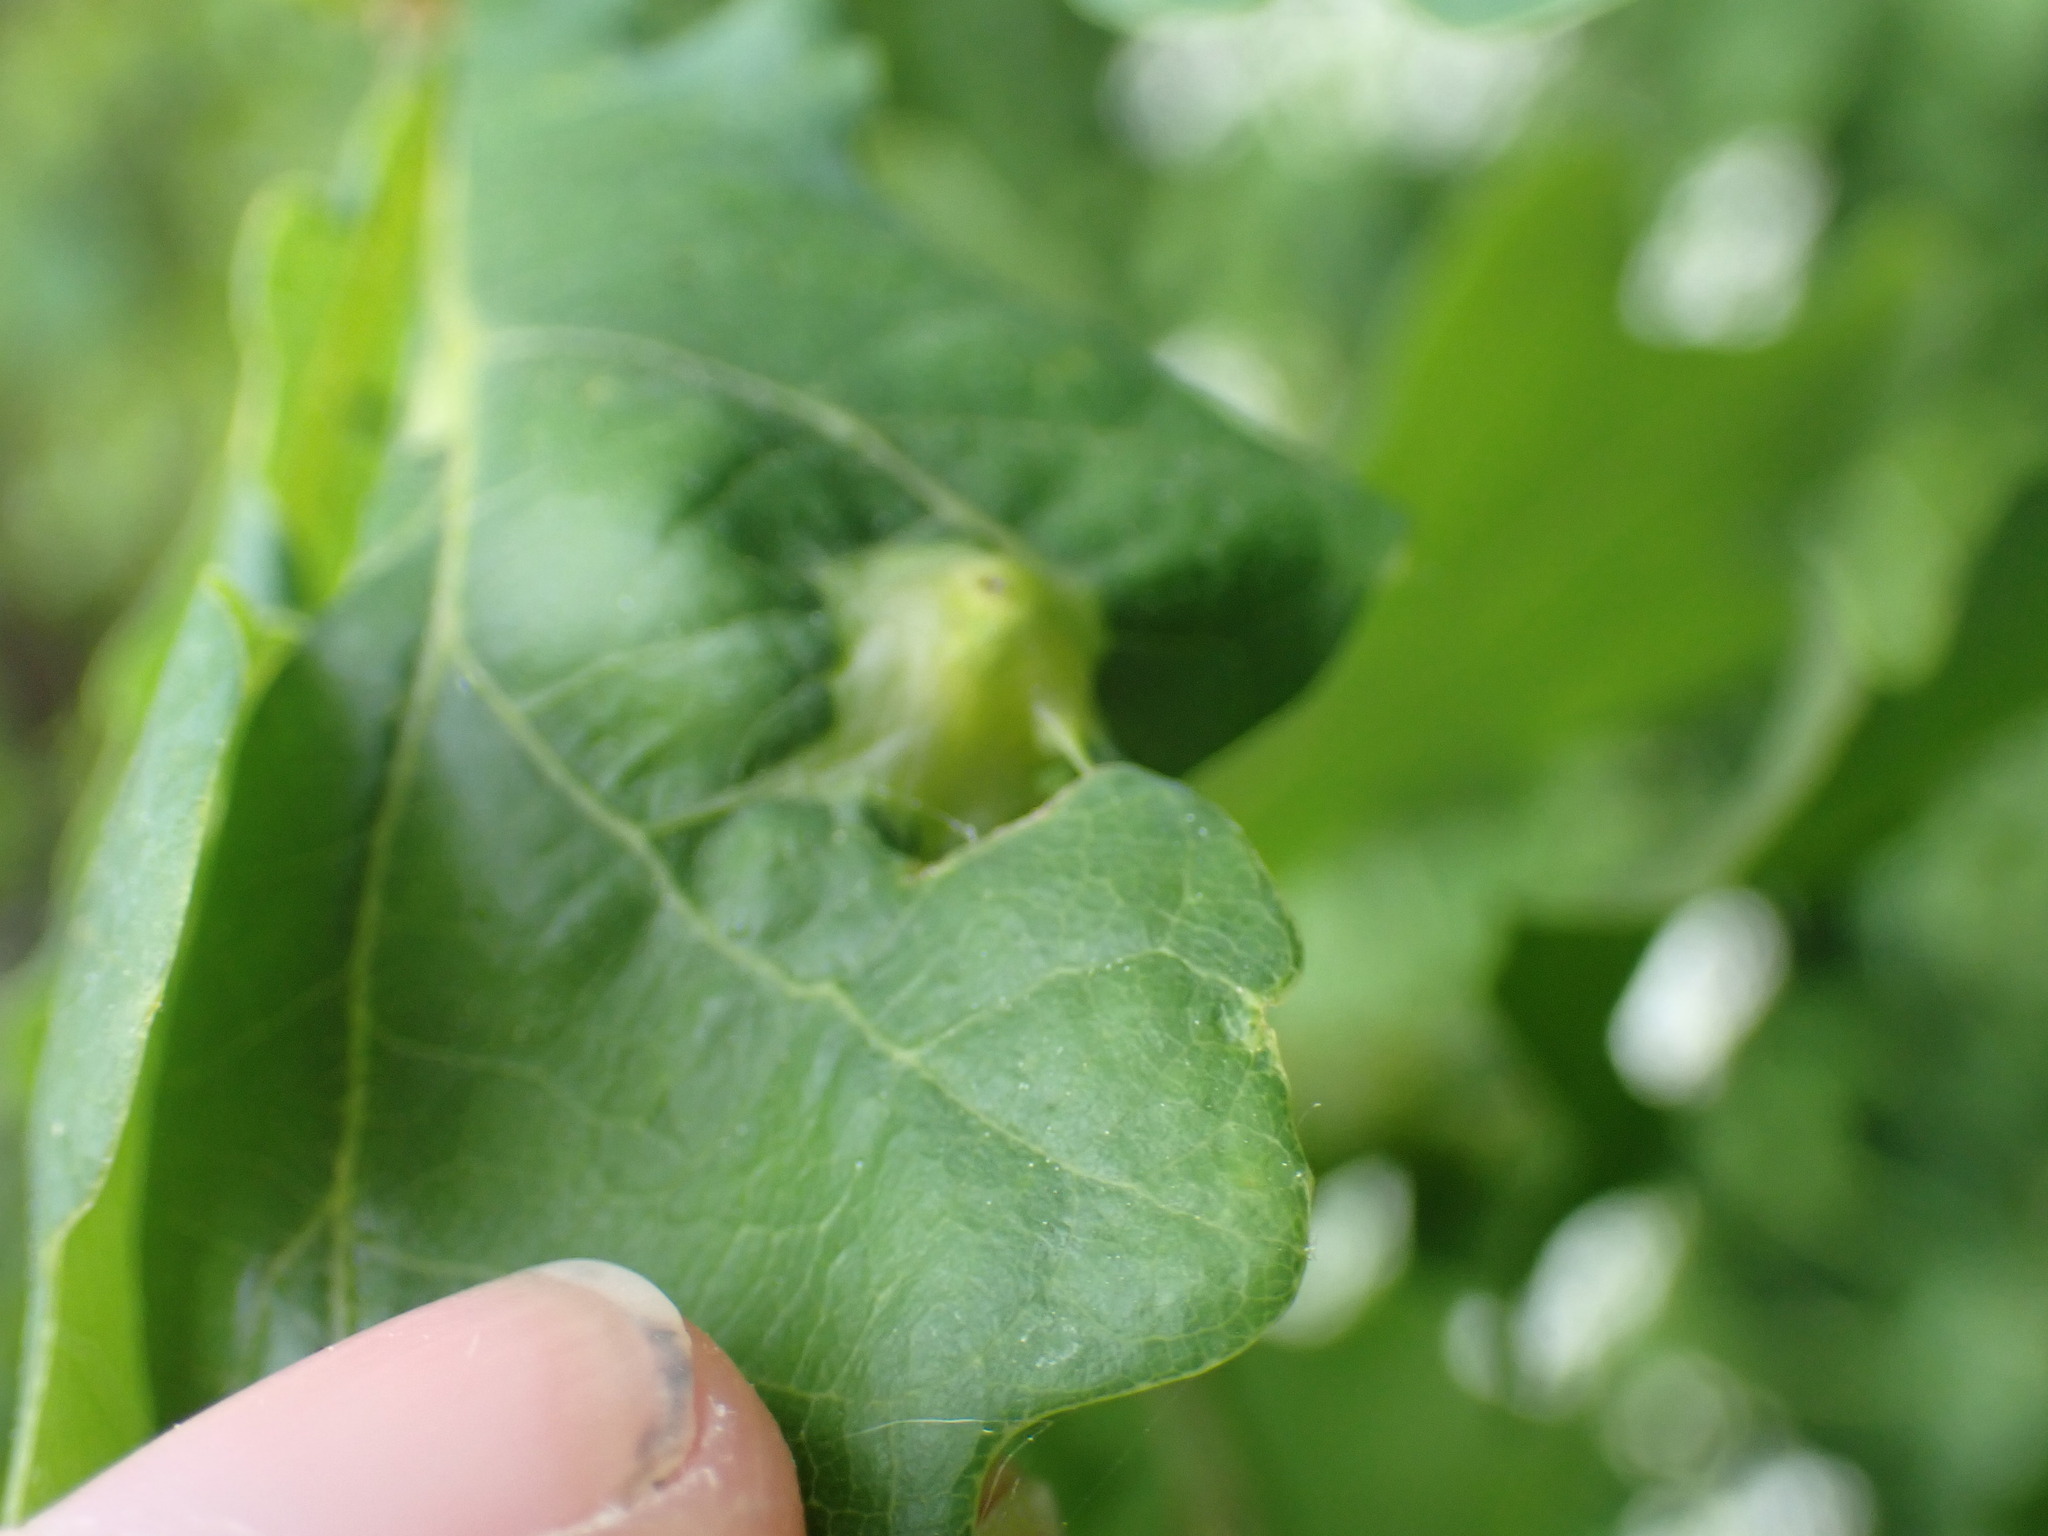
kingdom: Animalia
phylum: Arthropoda
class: Insecta
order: Hymenoptera
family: Cynipidae
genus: Andricus
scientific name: Andricus curvator
